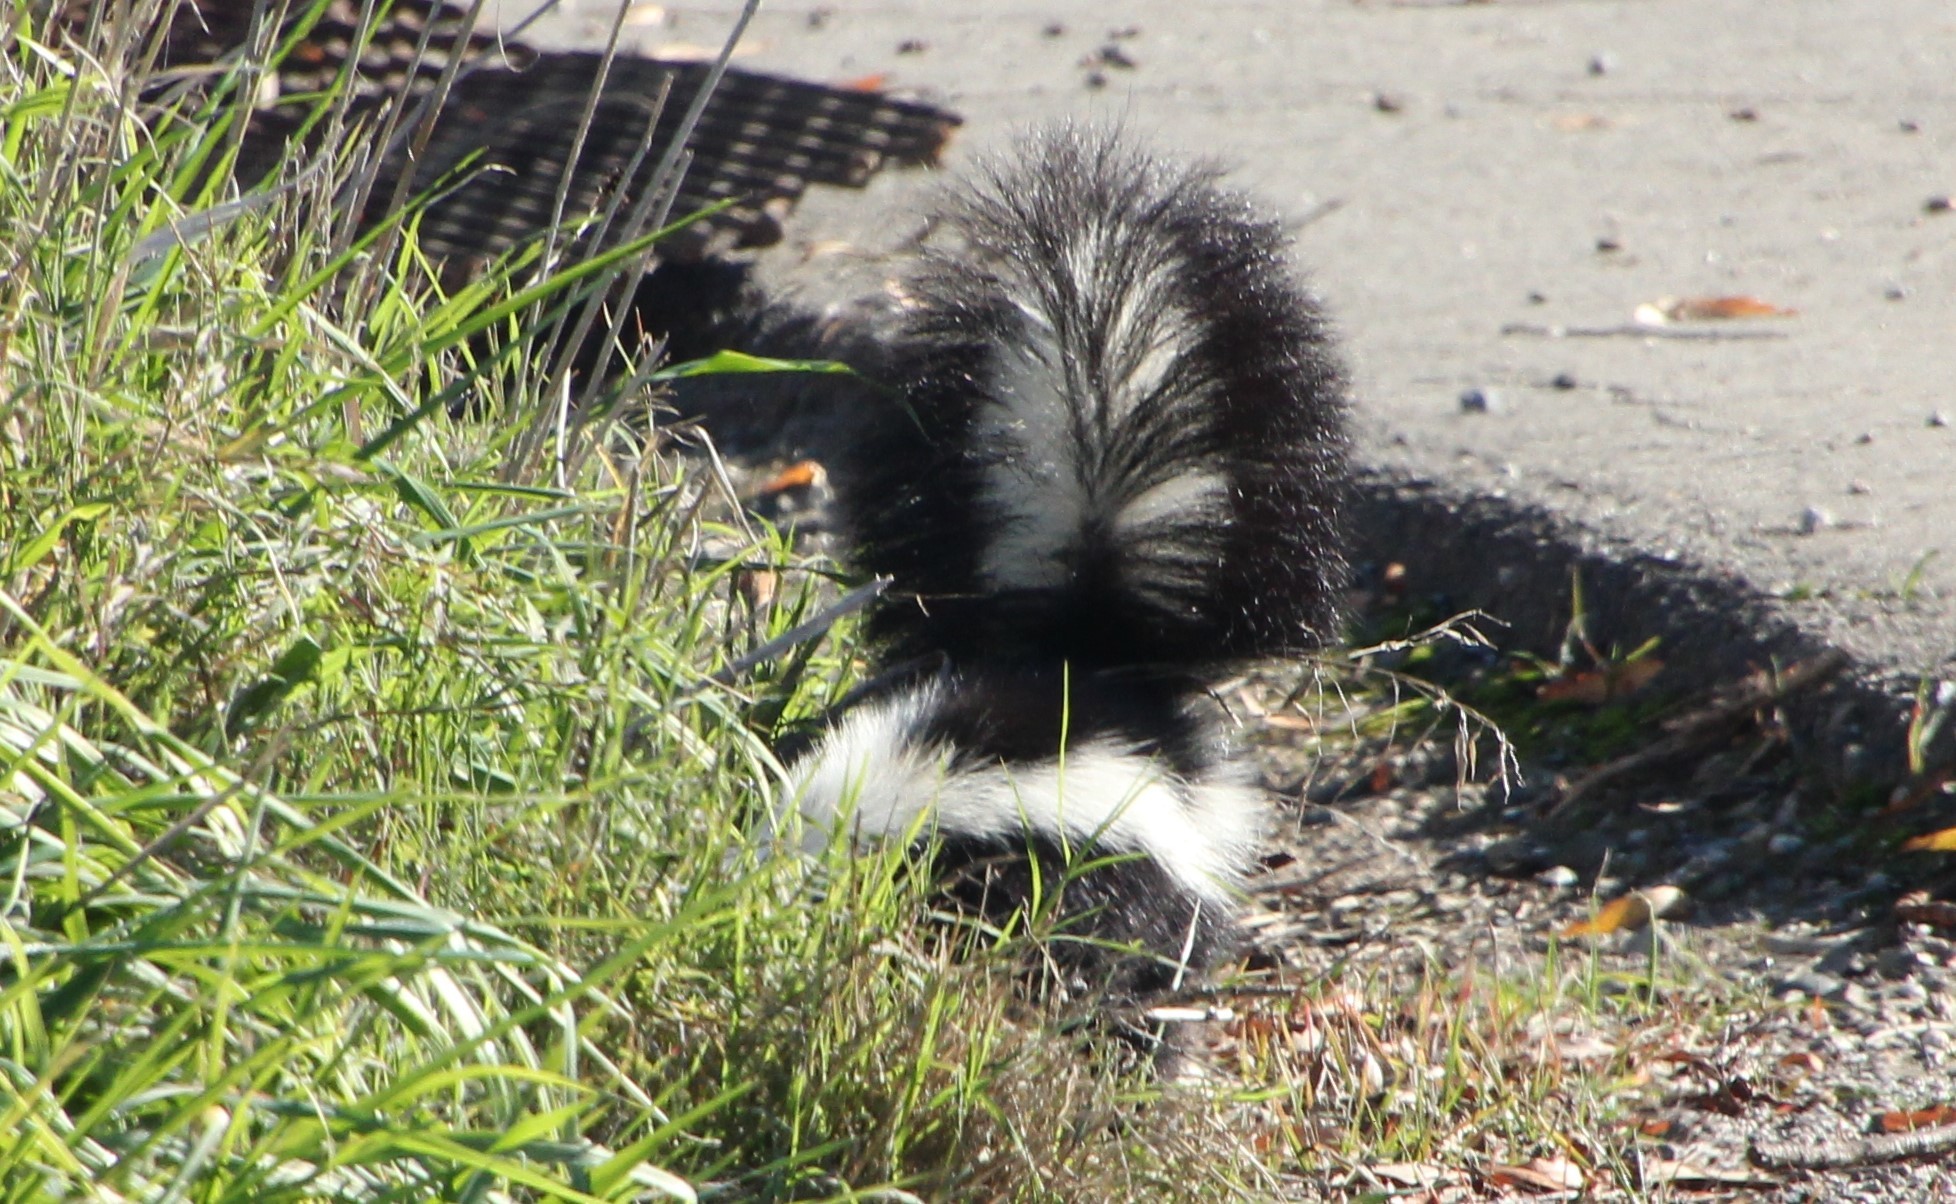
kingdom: Animalia
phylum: Chordata
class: Mammalia
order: Carnivora
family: Mephitidae
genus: Mephitis
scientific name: Mephitis mephitis
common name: Striped skunk
